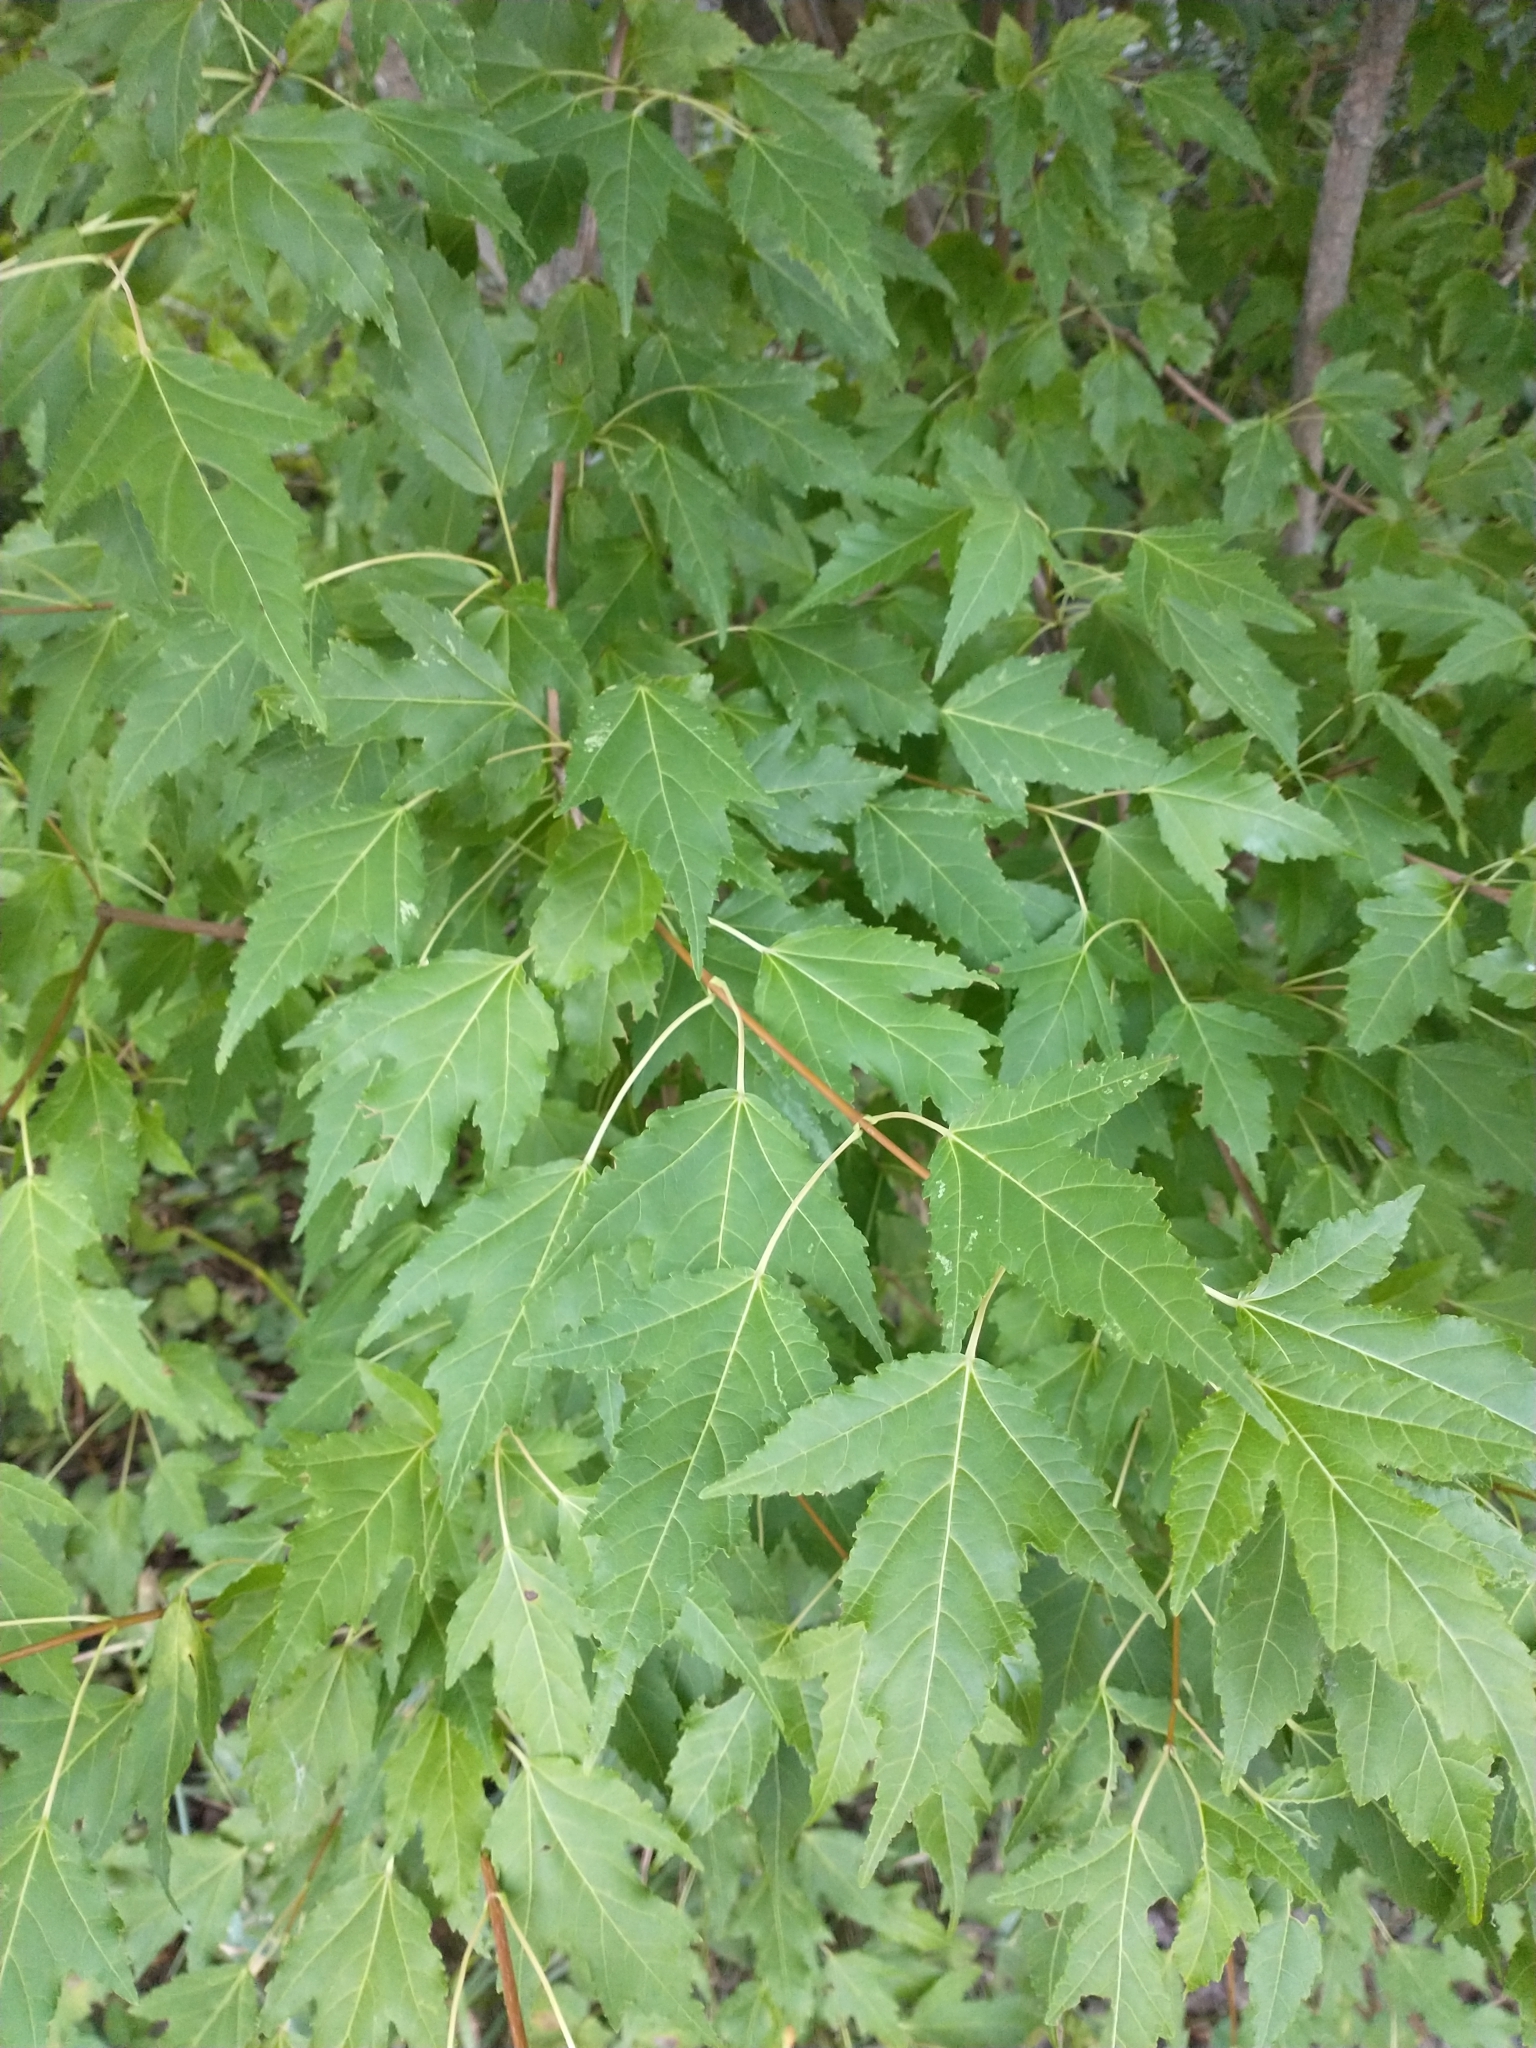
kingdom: Plantae
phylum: Tracheophyta
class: Magnoliopsida
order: Sapindales
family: Sapindaceae
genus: Acer
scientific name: Acer tataricum
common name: Tartar maple
